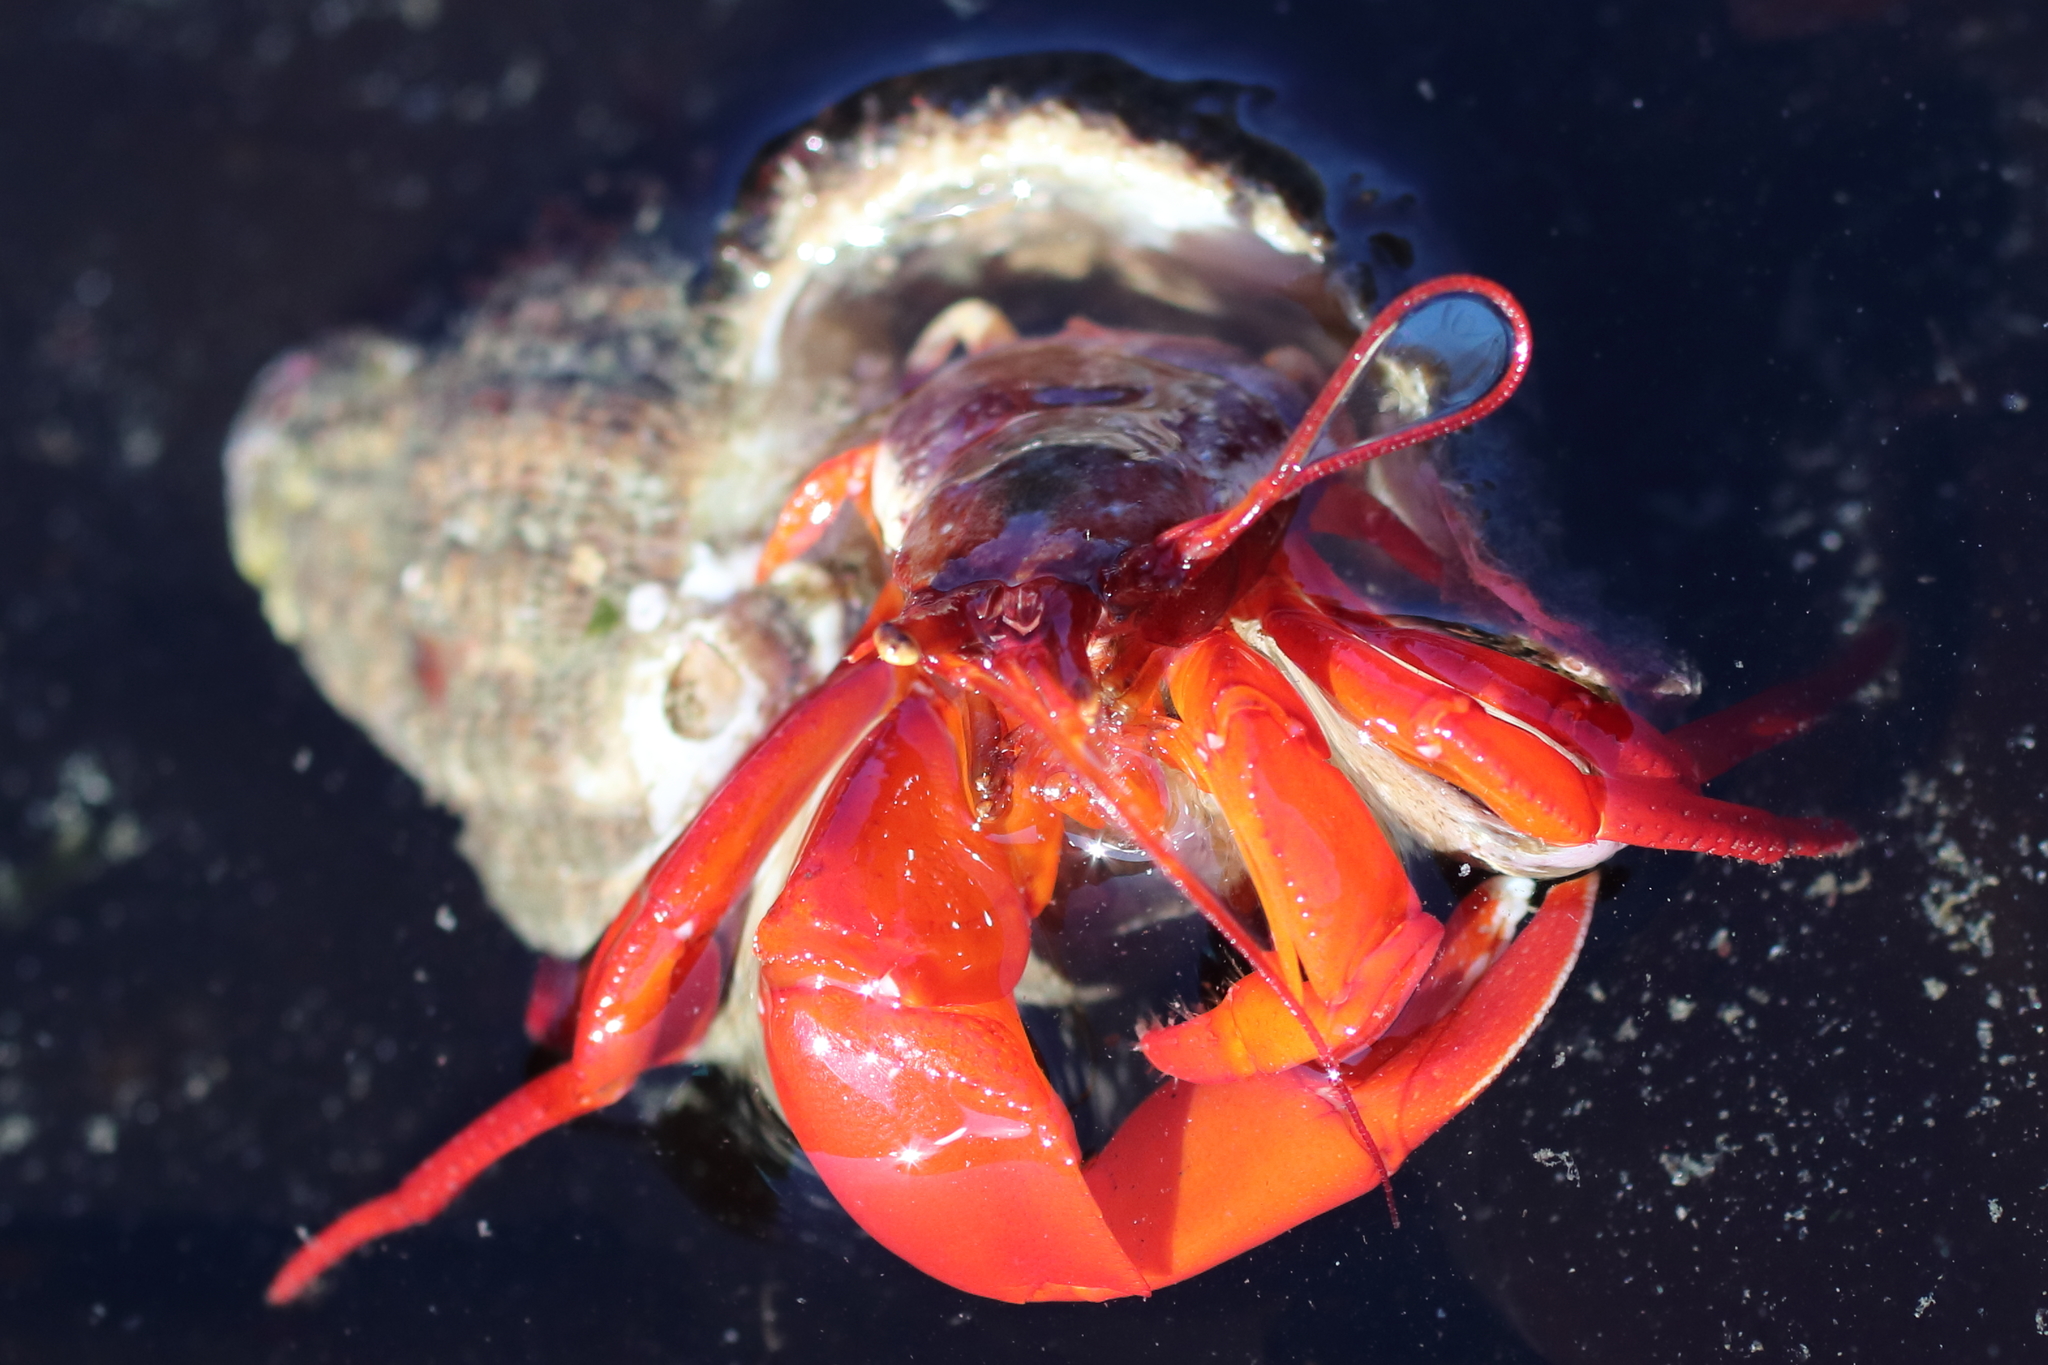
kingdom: Animalia
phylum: Arthropoda
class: Malacostraca
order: Decapoda
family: Paguridae
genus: Elassochirus
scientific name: Elassochirus gilli
